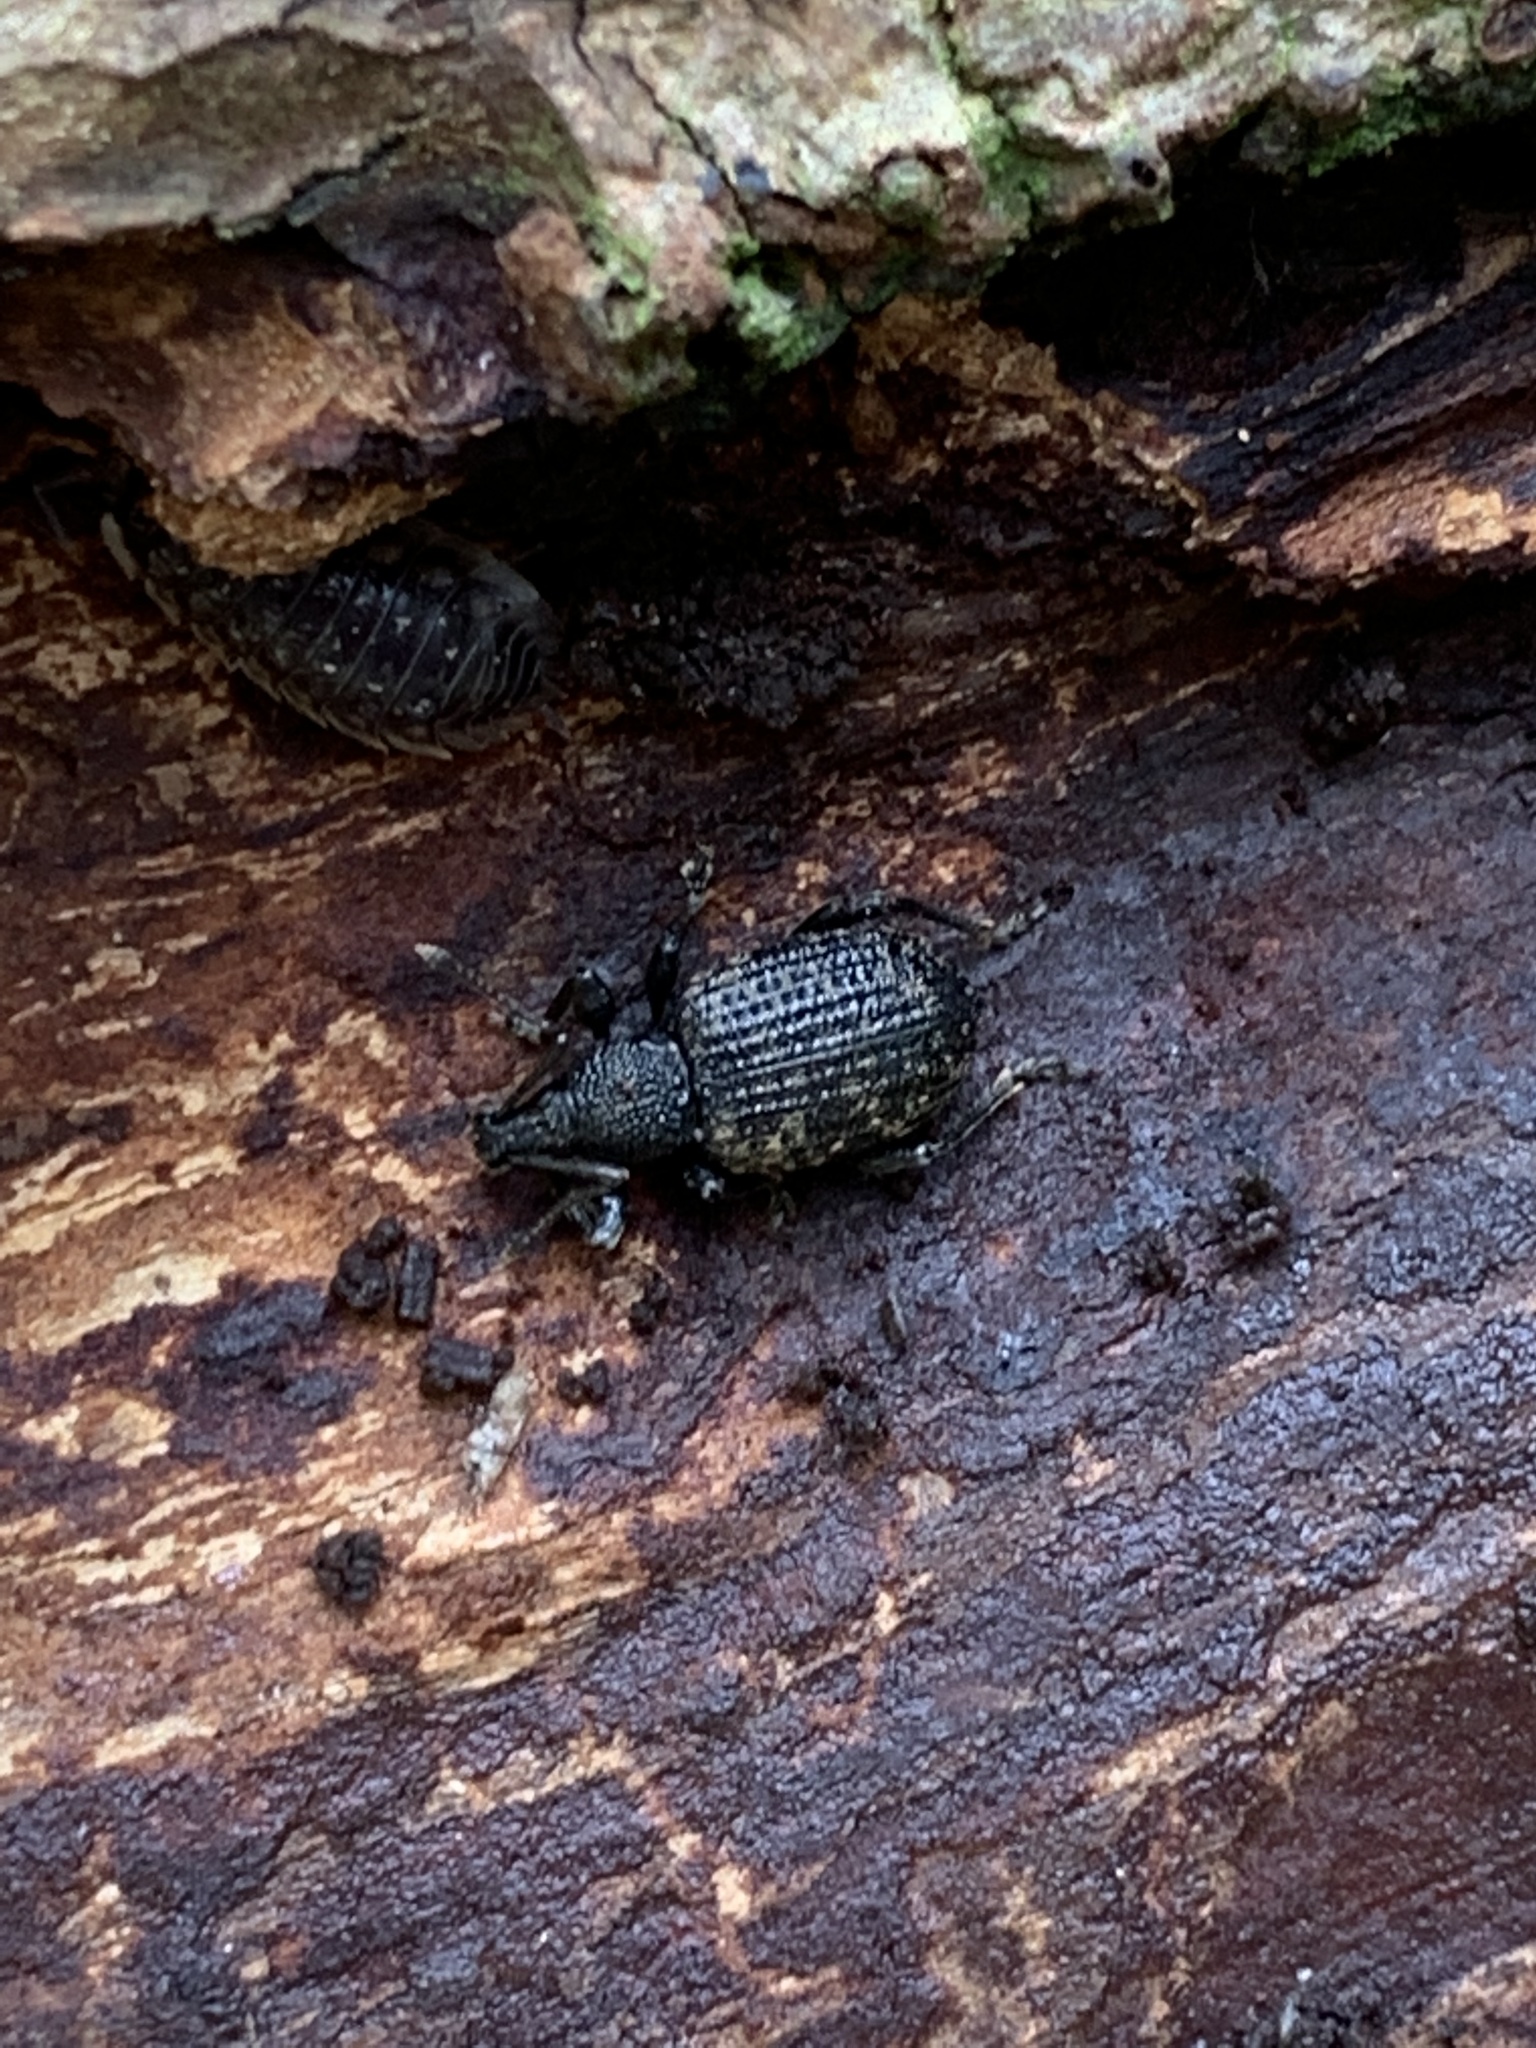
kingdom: Animalia
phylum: Arthropoda
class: Insecta
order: Coleoptera
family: Curculionidae
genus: Otiorhynchus
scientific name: Otiorhynchus sulcatus
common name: Black vine weevil
